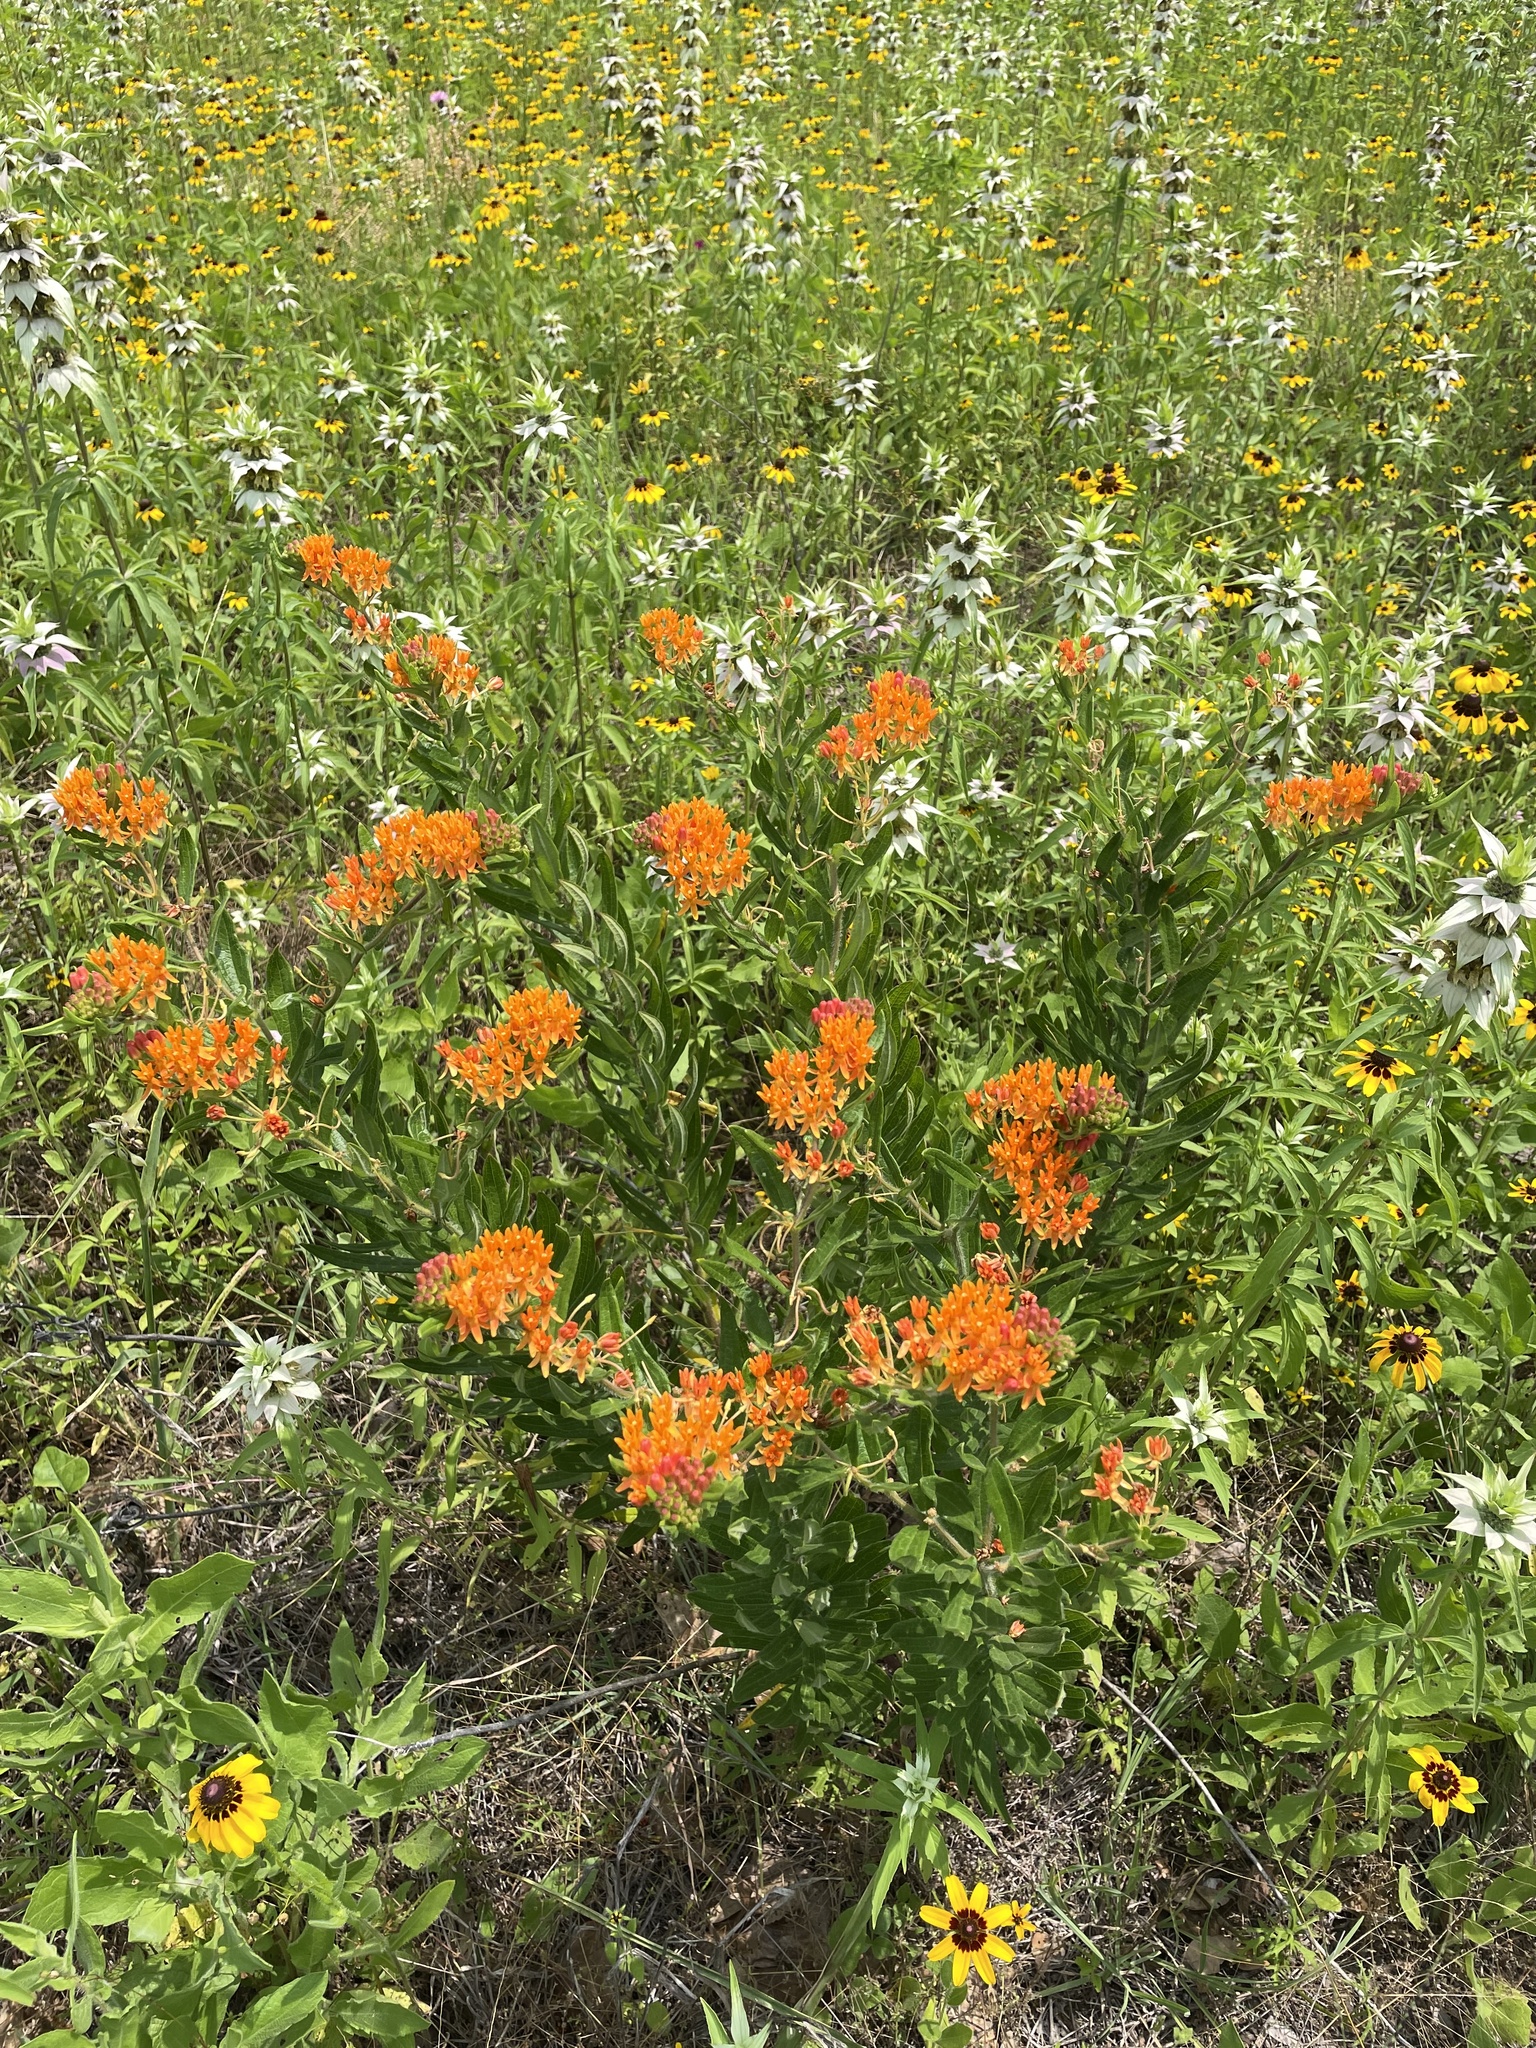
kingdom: Plantae
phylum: Tracheophyta
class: Magnoliopsida
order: Gentianales
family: Apocynaceae
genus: Asclepias
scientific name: Asclepias tuberosa
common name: Butterfly milkweed
